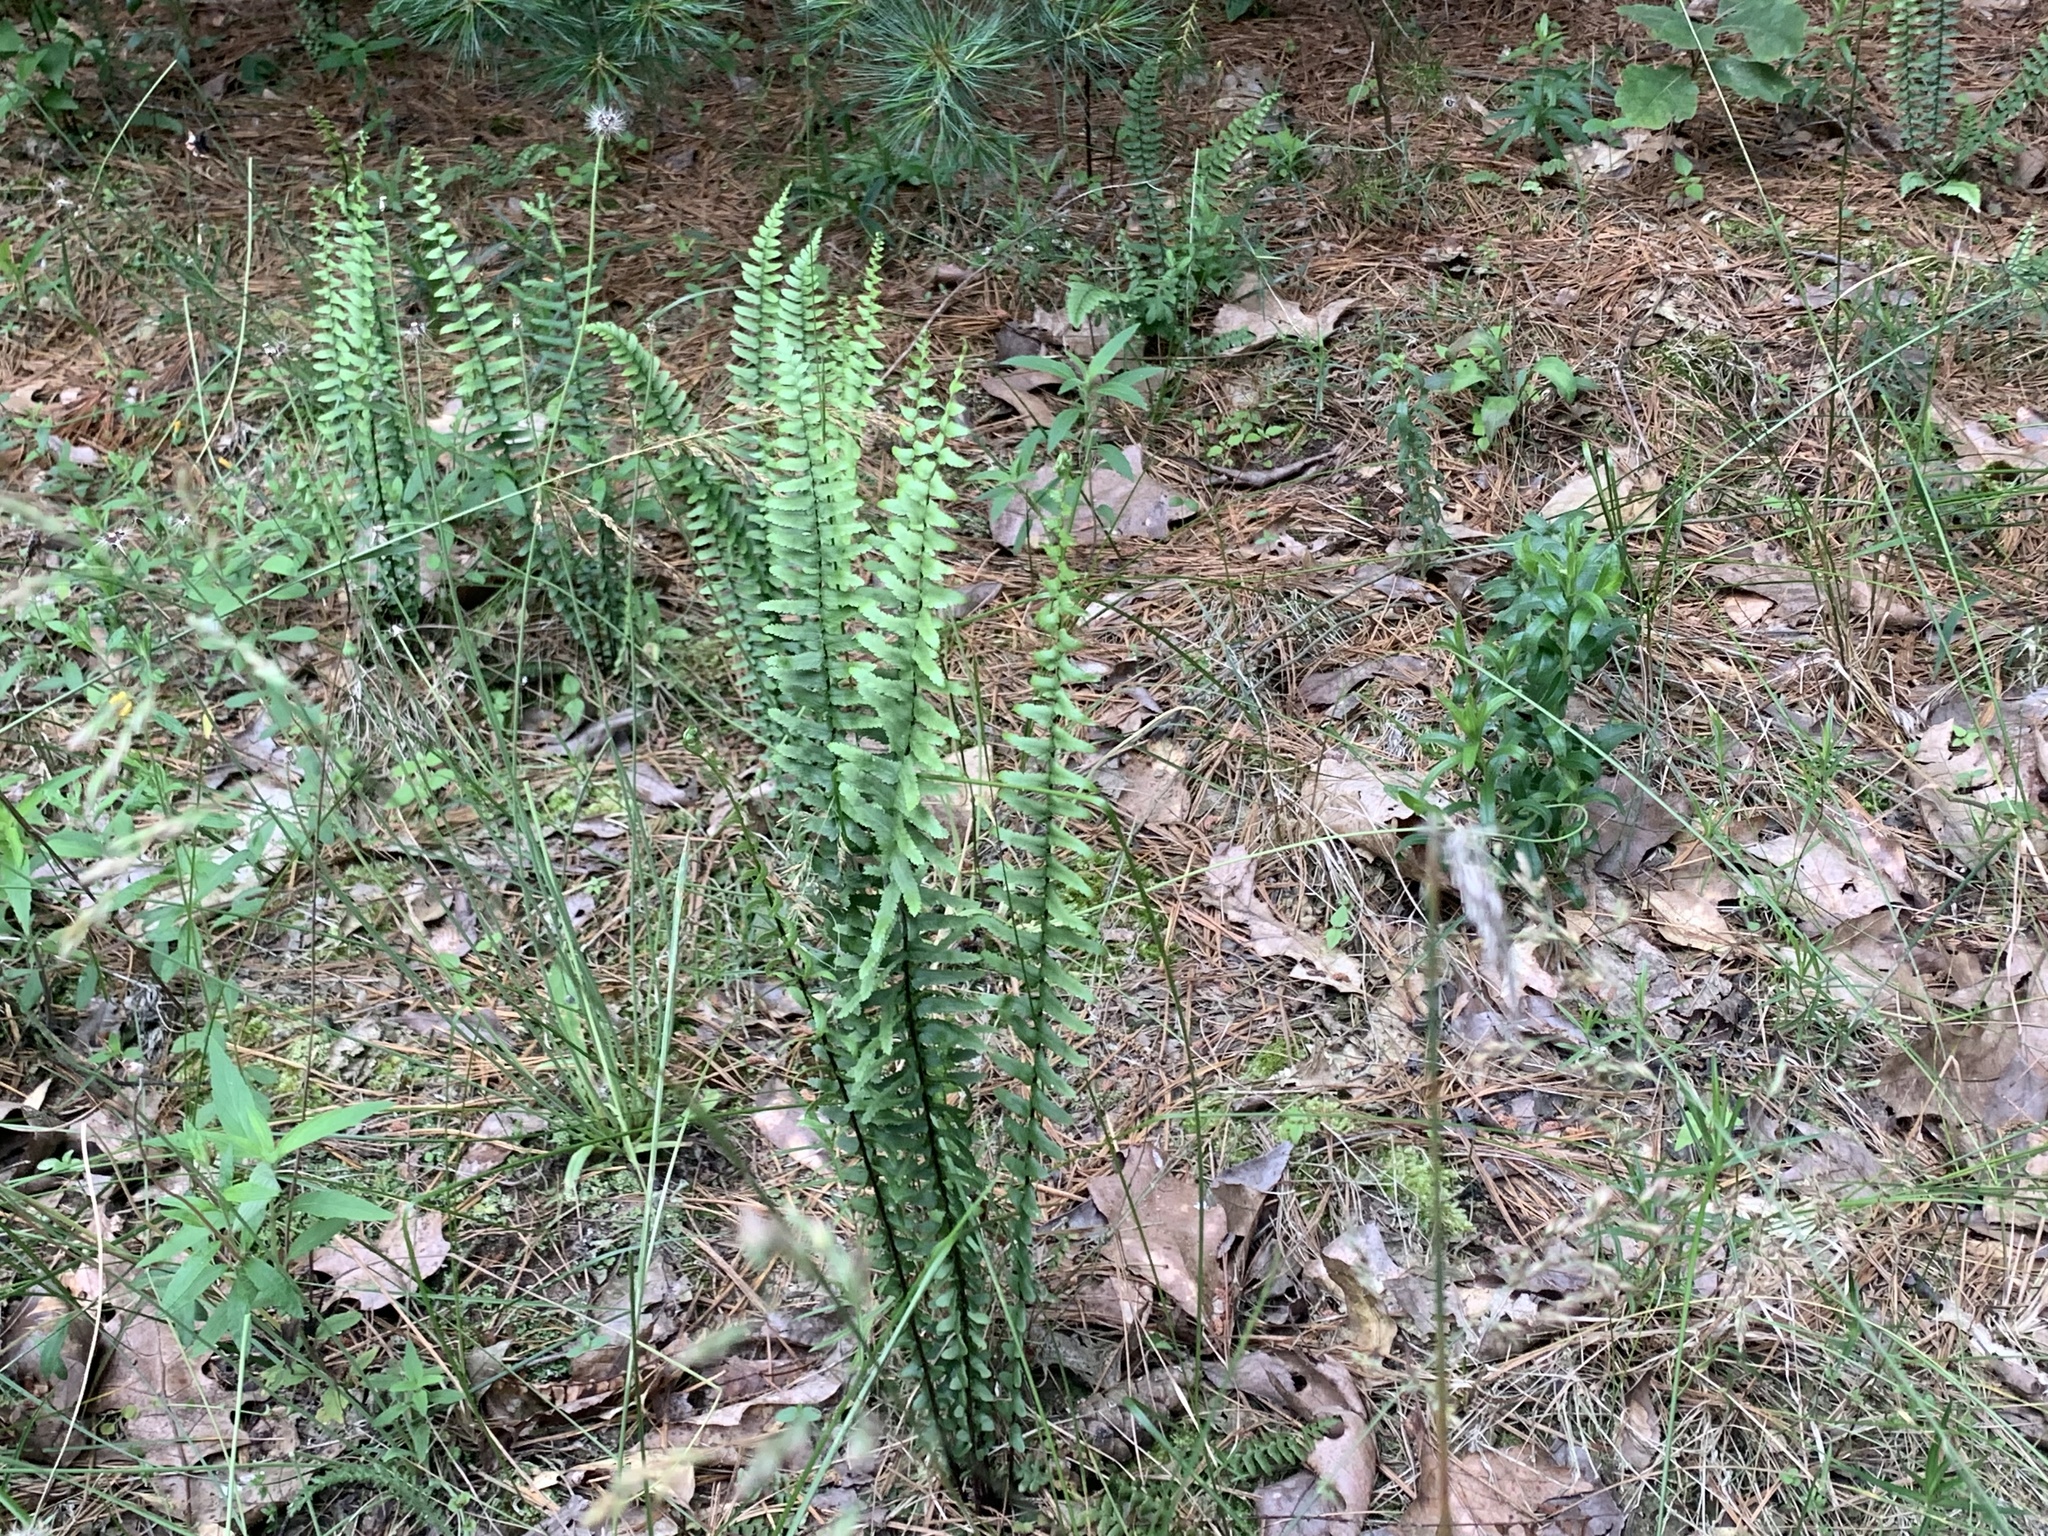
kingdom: Plantae
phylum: Tracheophyta
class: Polypodiopsida
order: Polypodiales
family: Aspleniaceae
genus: Asplenium
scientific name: Asplenium platyneuron
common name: Ebony spleenwort
